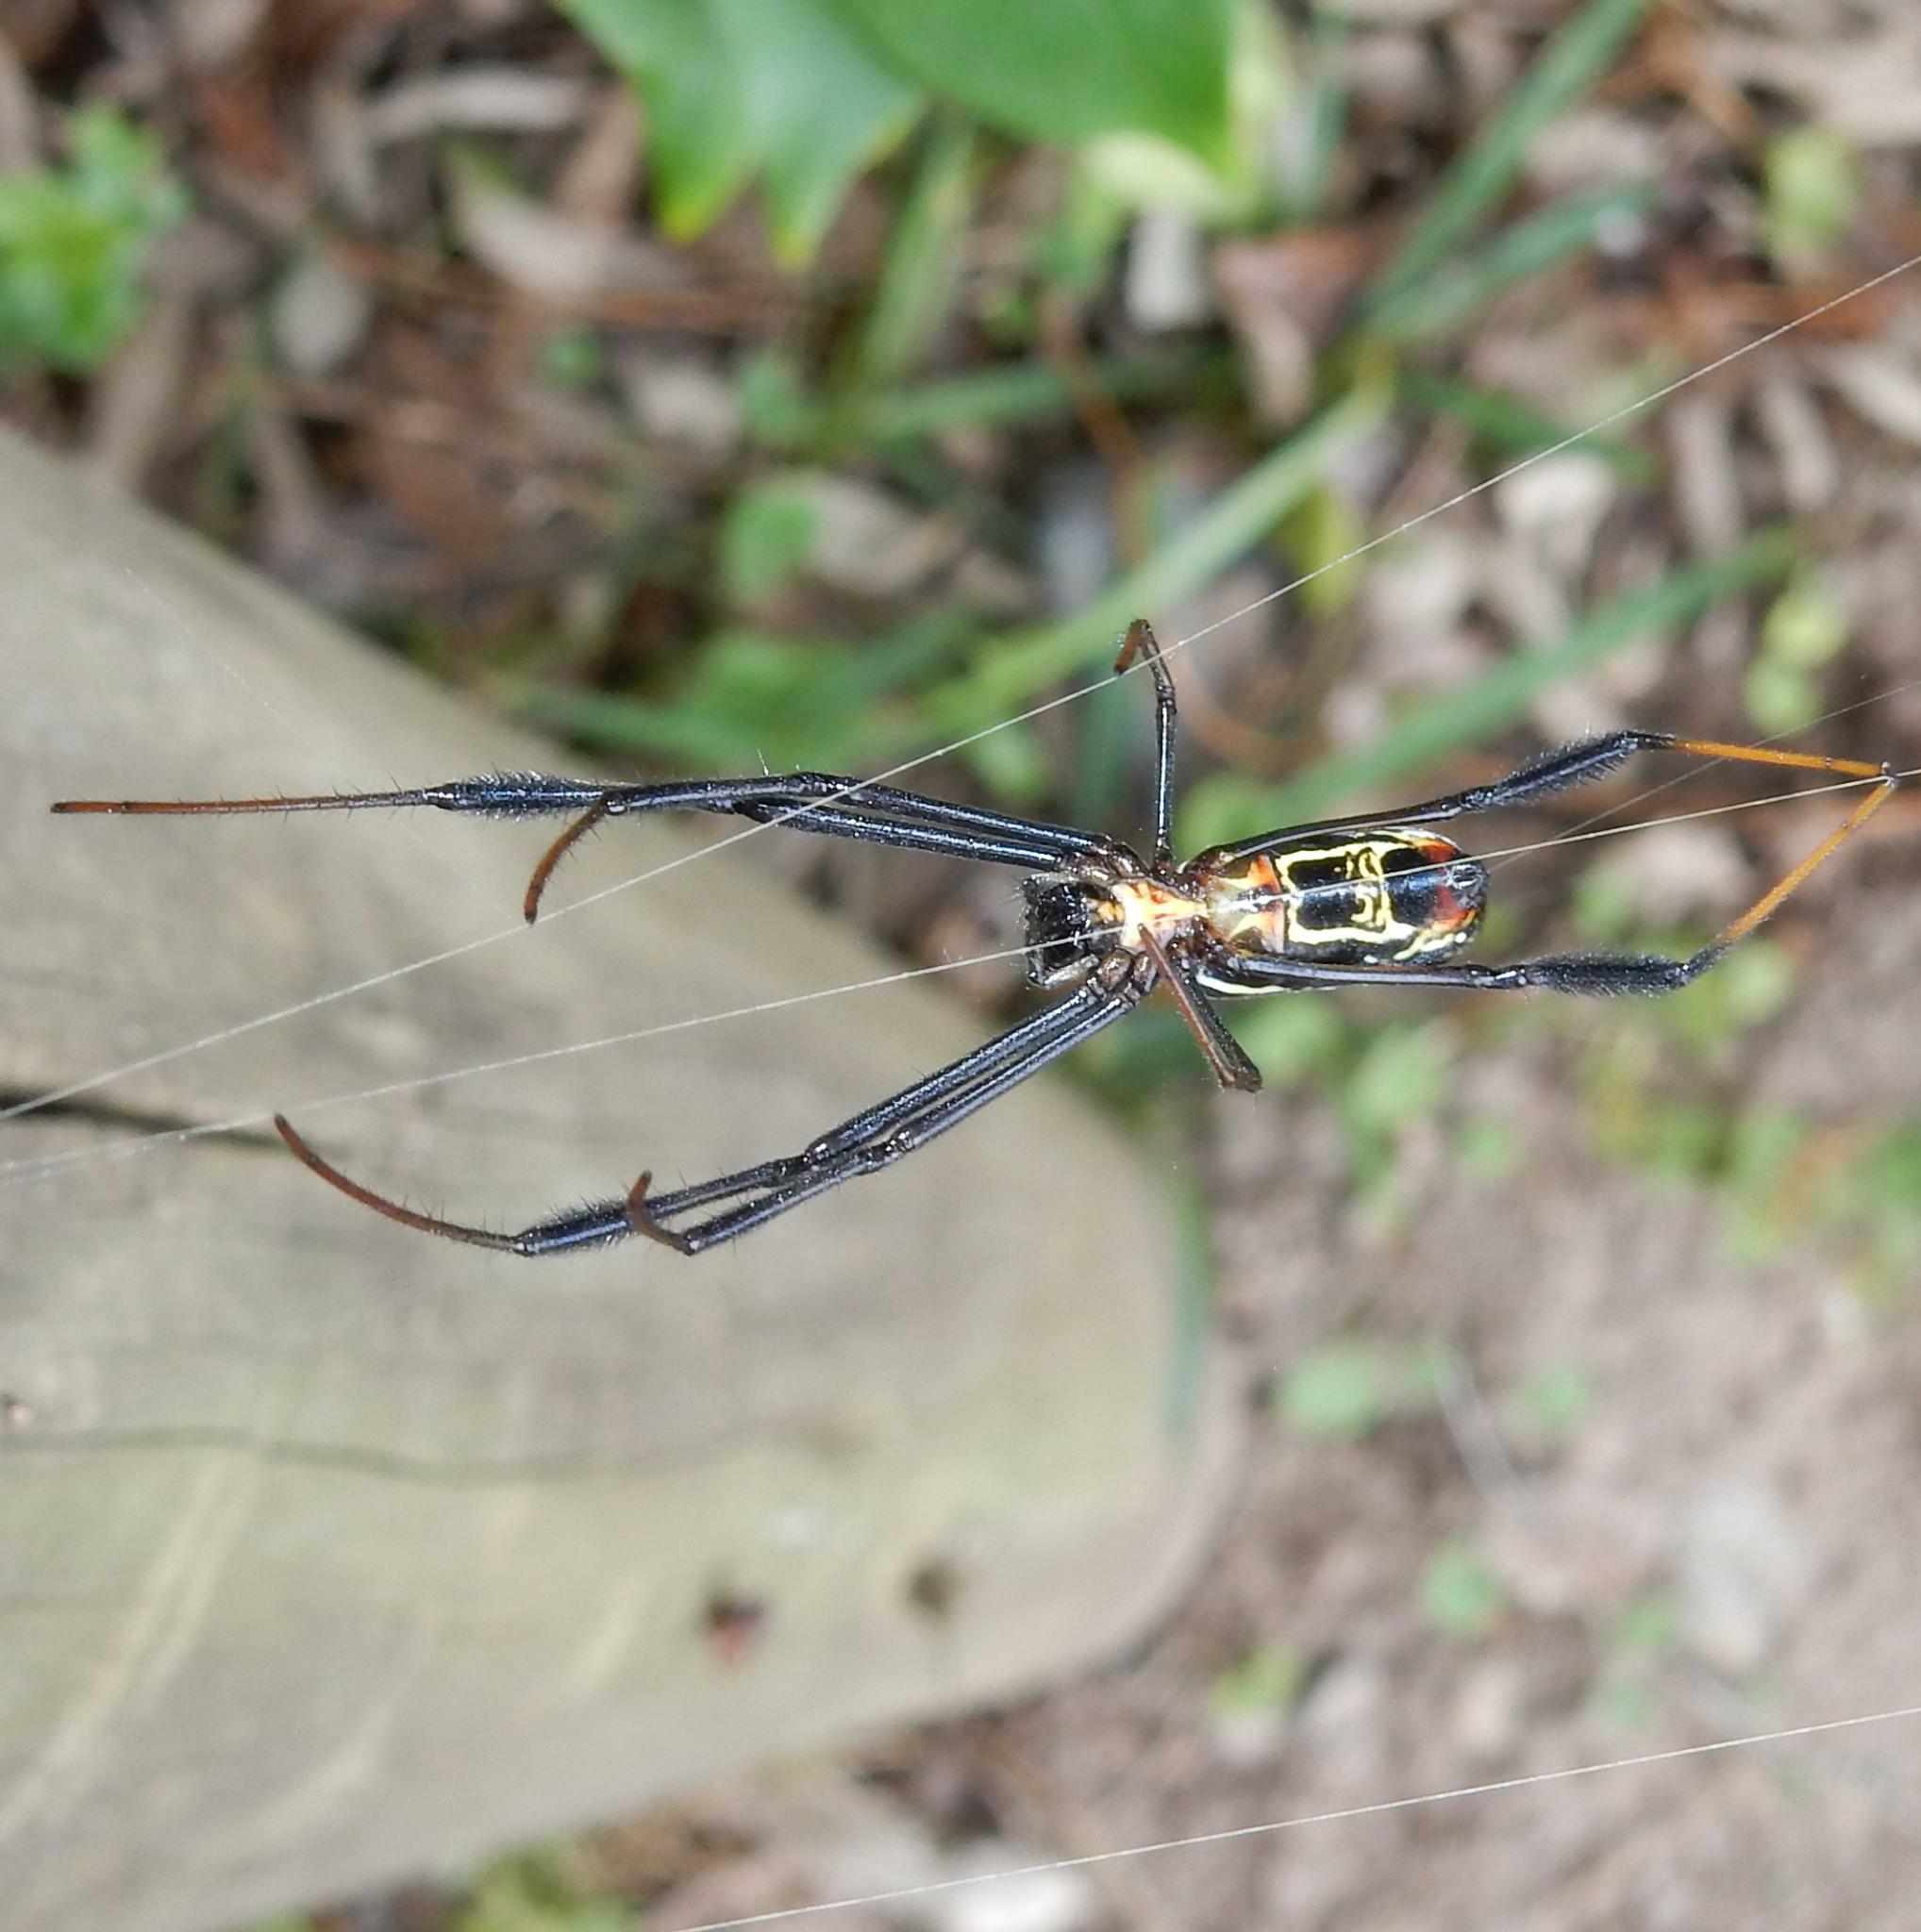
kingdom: Animalia
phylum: Arthropoda
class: Arachnida
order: Araneae
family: Araneidae
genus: Trichonephila
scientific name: Trichonephila fenestrata
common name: Hairy golden orb weaver
